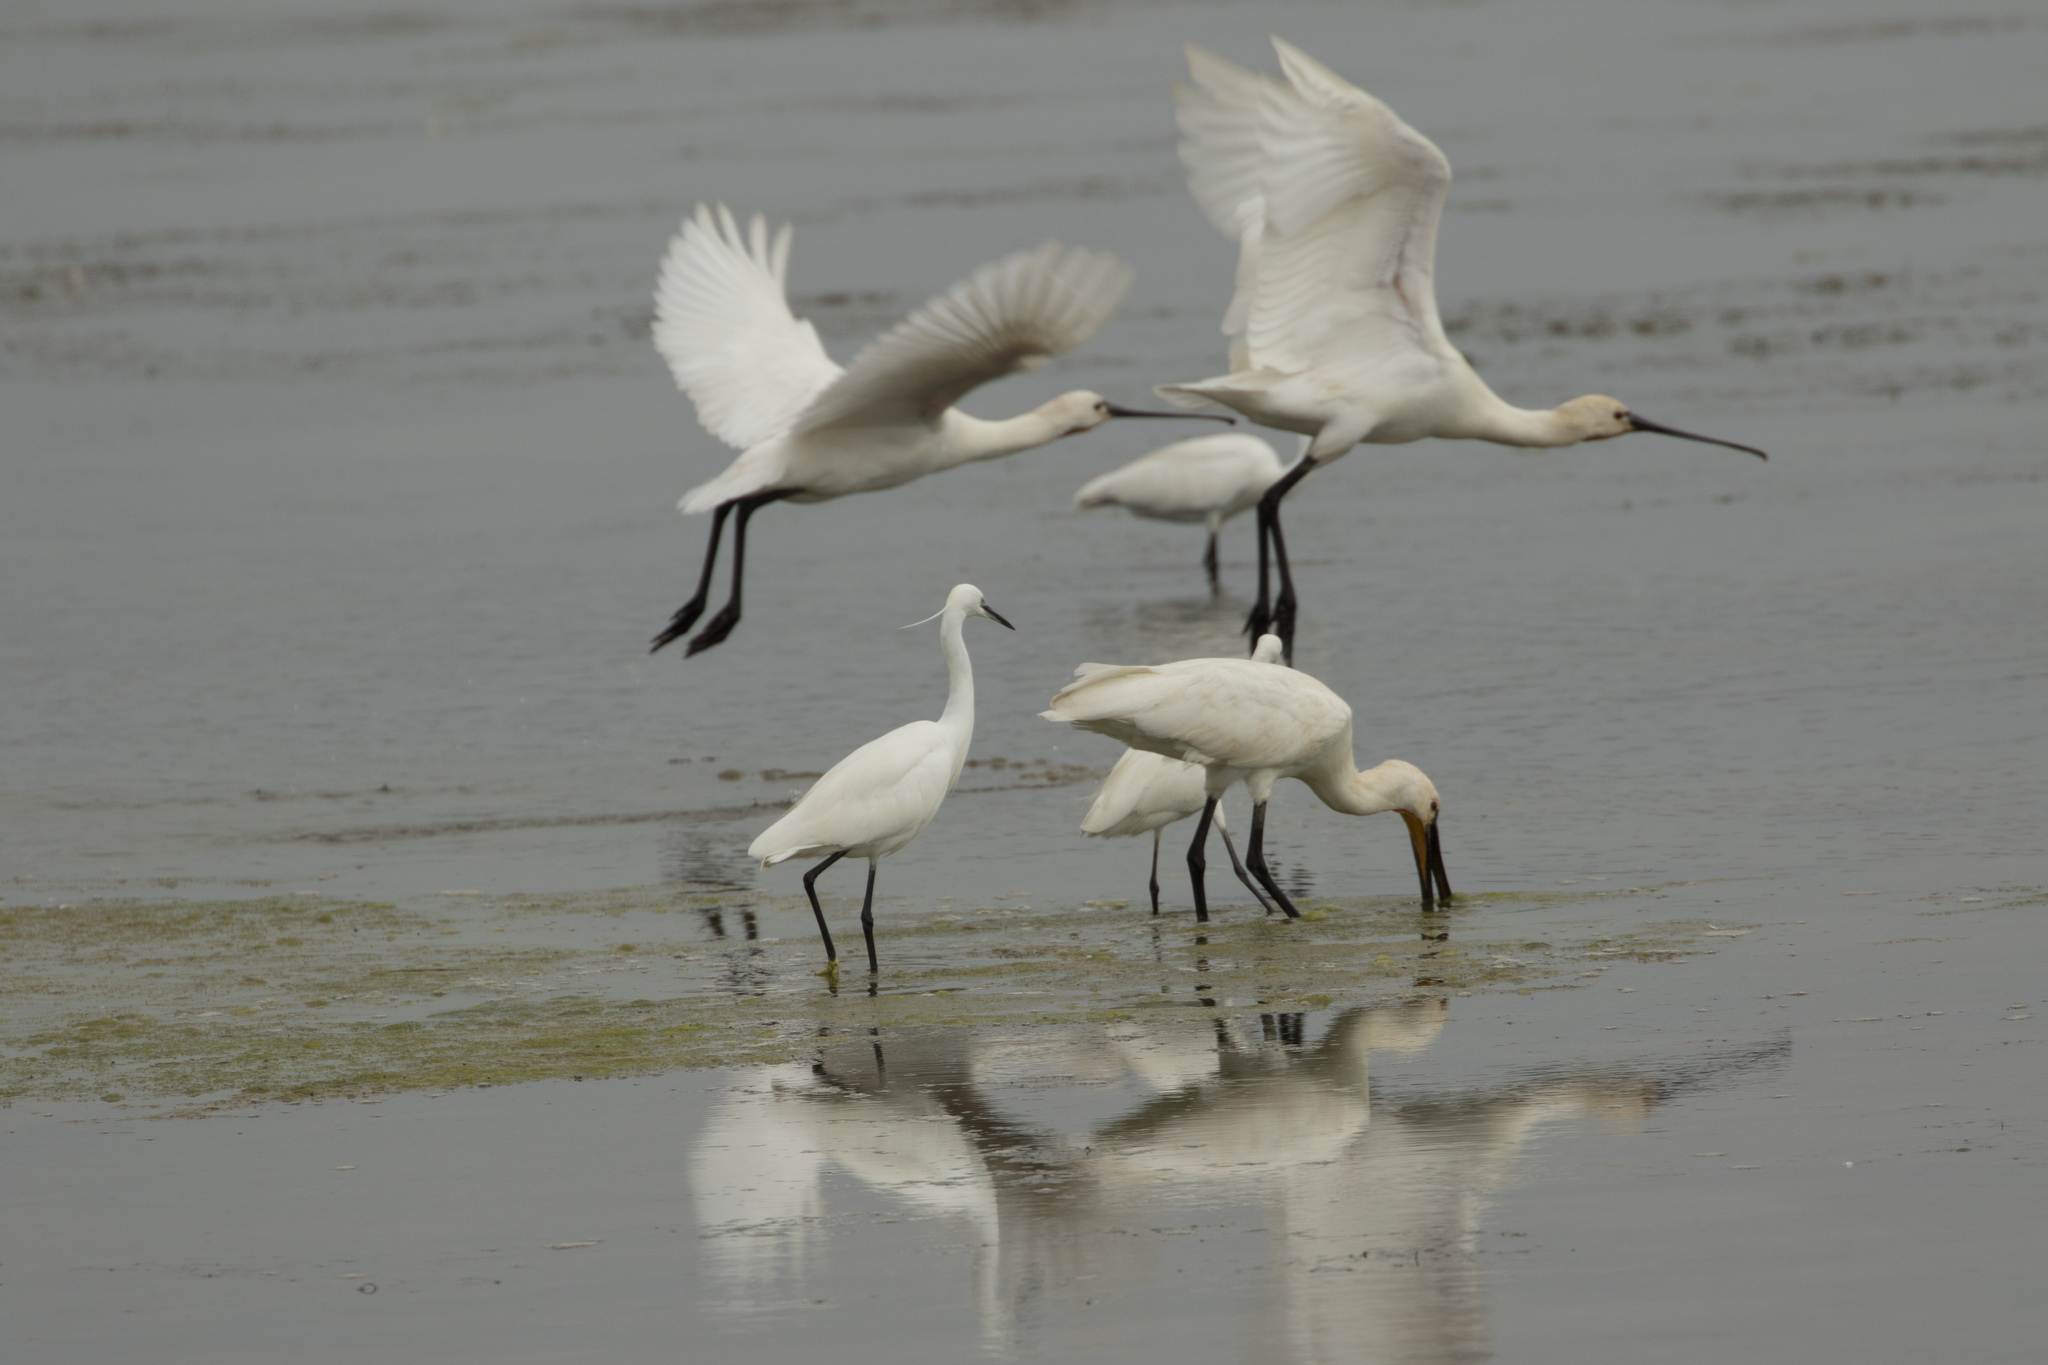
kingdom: Animalia
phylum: Chordata
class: Aves
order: Pelecaniformes
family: Threskiornithidae
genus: Platalea
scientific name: Platalea leucorodia
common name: Eurasian spoonbill
